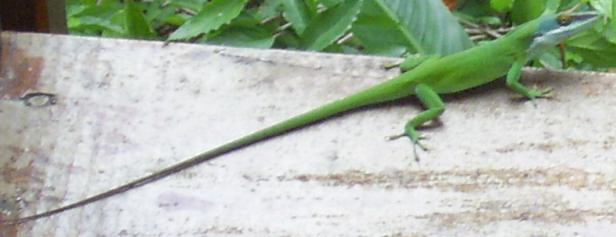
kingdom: Animalia
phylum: Chordata
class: Squamata
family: Dactyloidae
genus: Anolis
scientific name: Anolis allisoni
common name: Allison's anole
